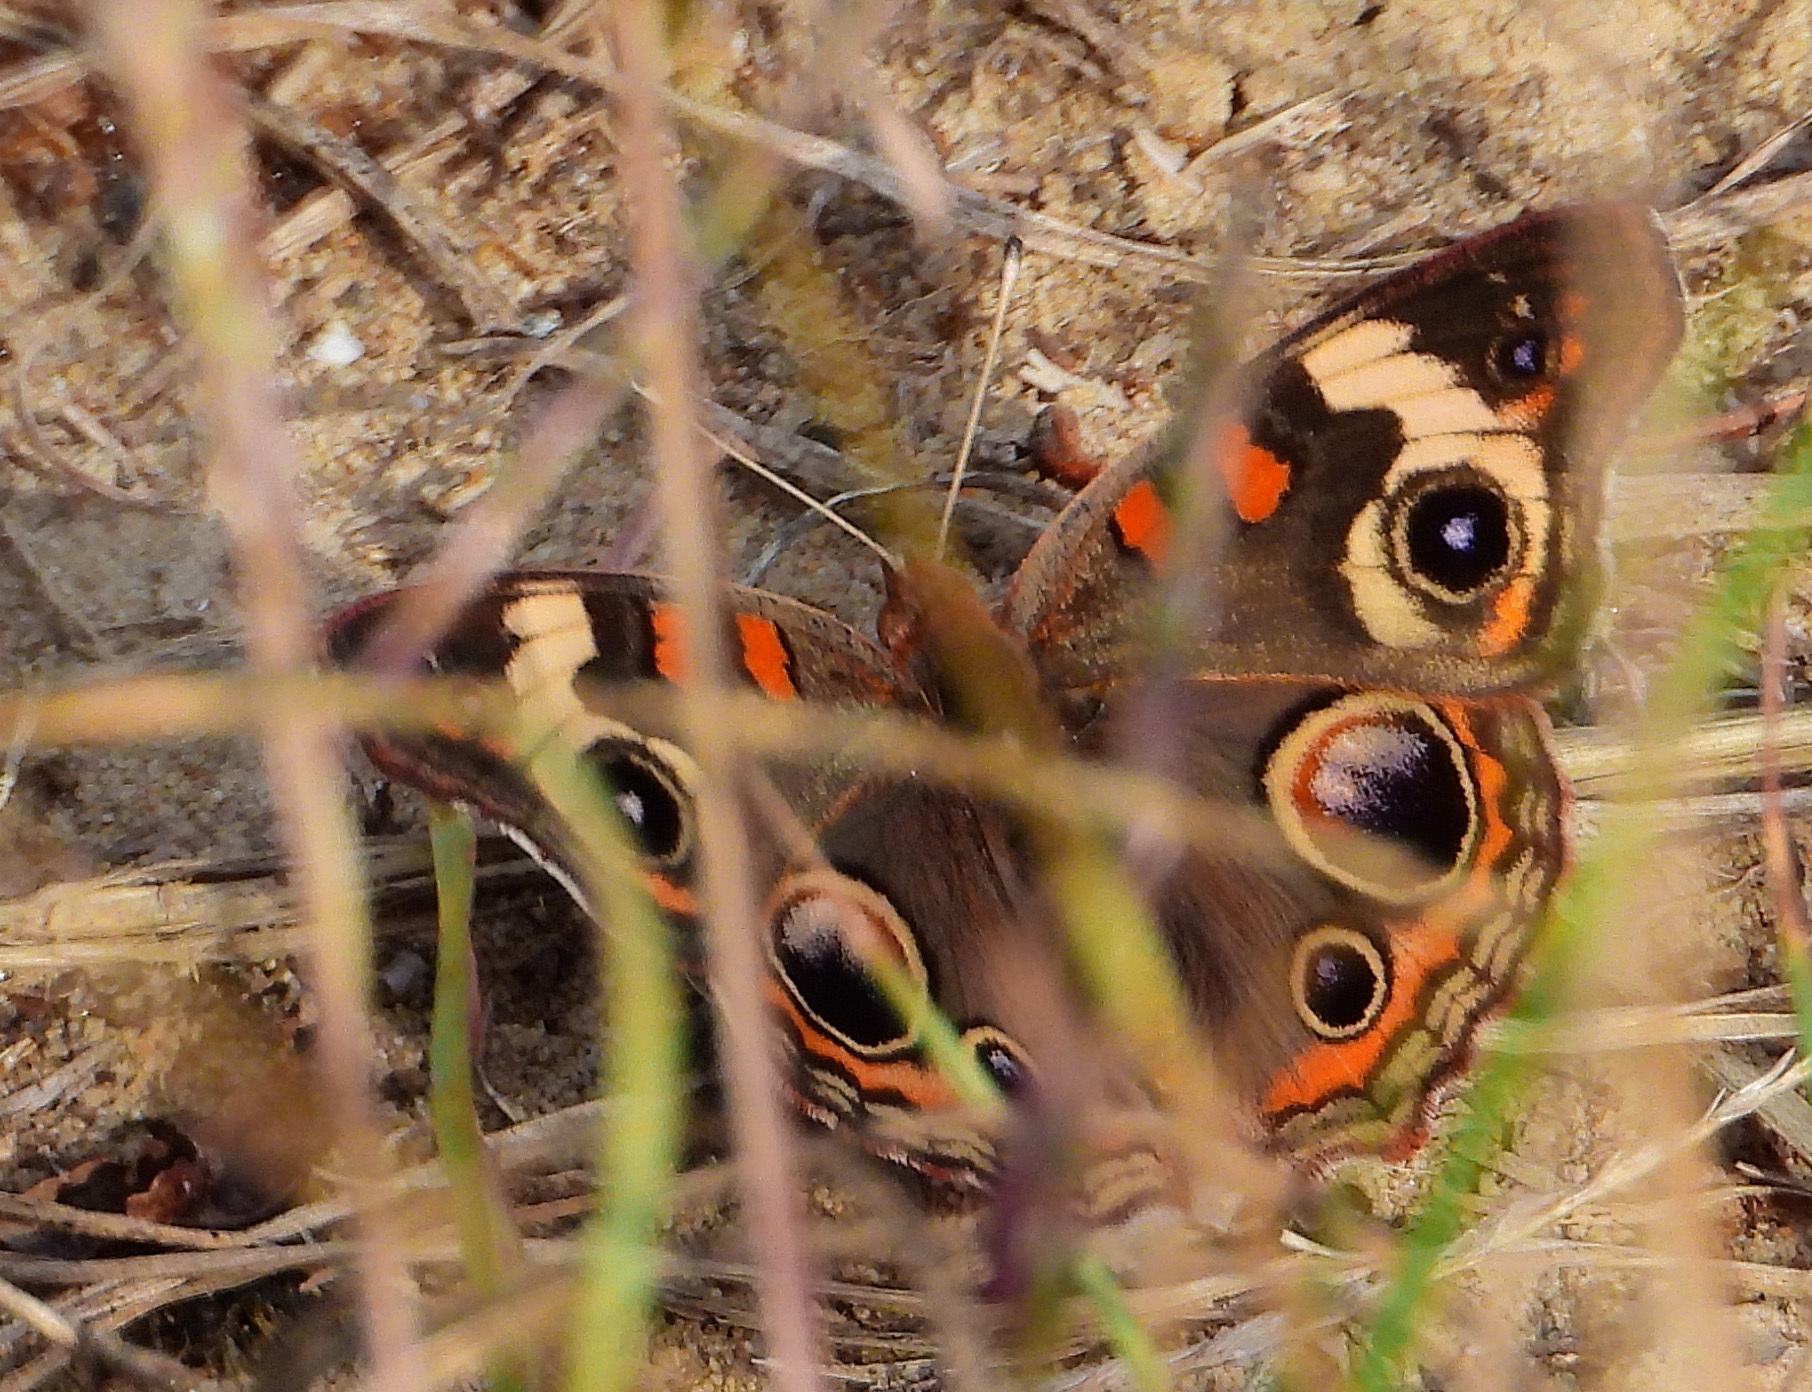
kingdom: Animalia
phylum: Arthropoda
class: Insecta
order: Lepidoptera
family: Nymphalidae
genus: Junonia
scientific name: Junonia coenia
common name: Common buckeye
